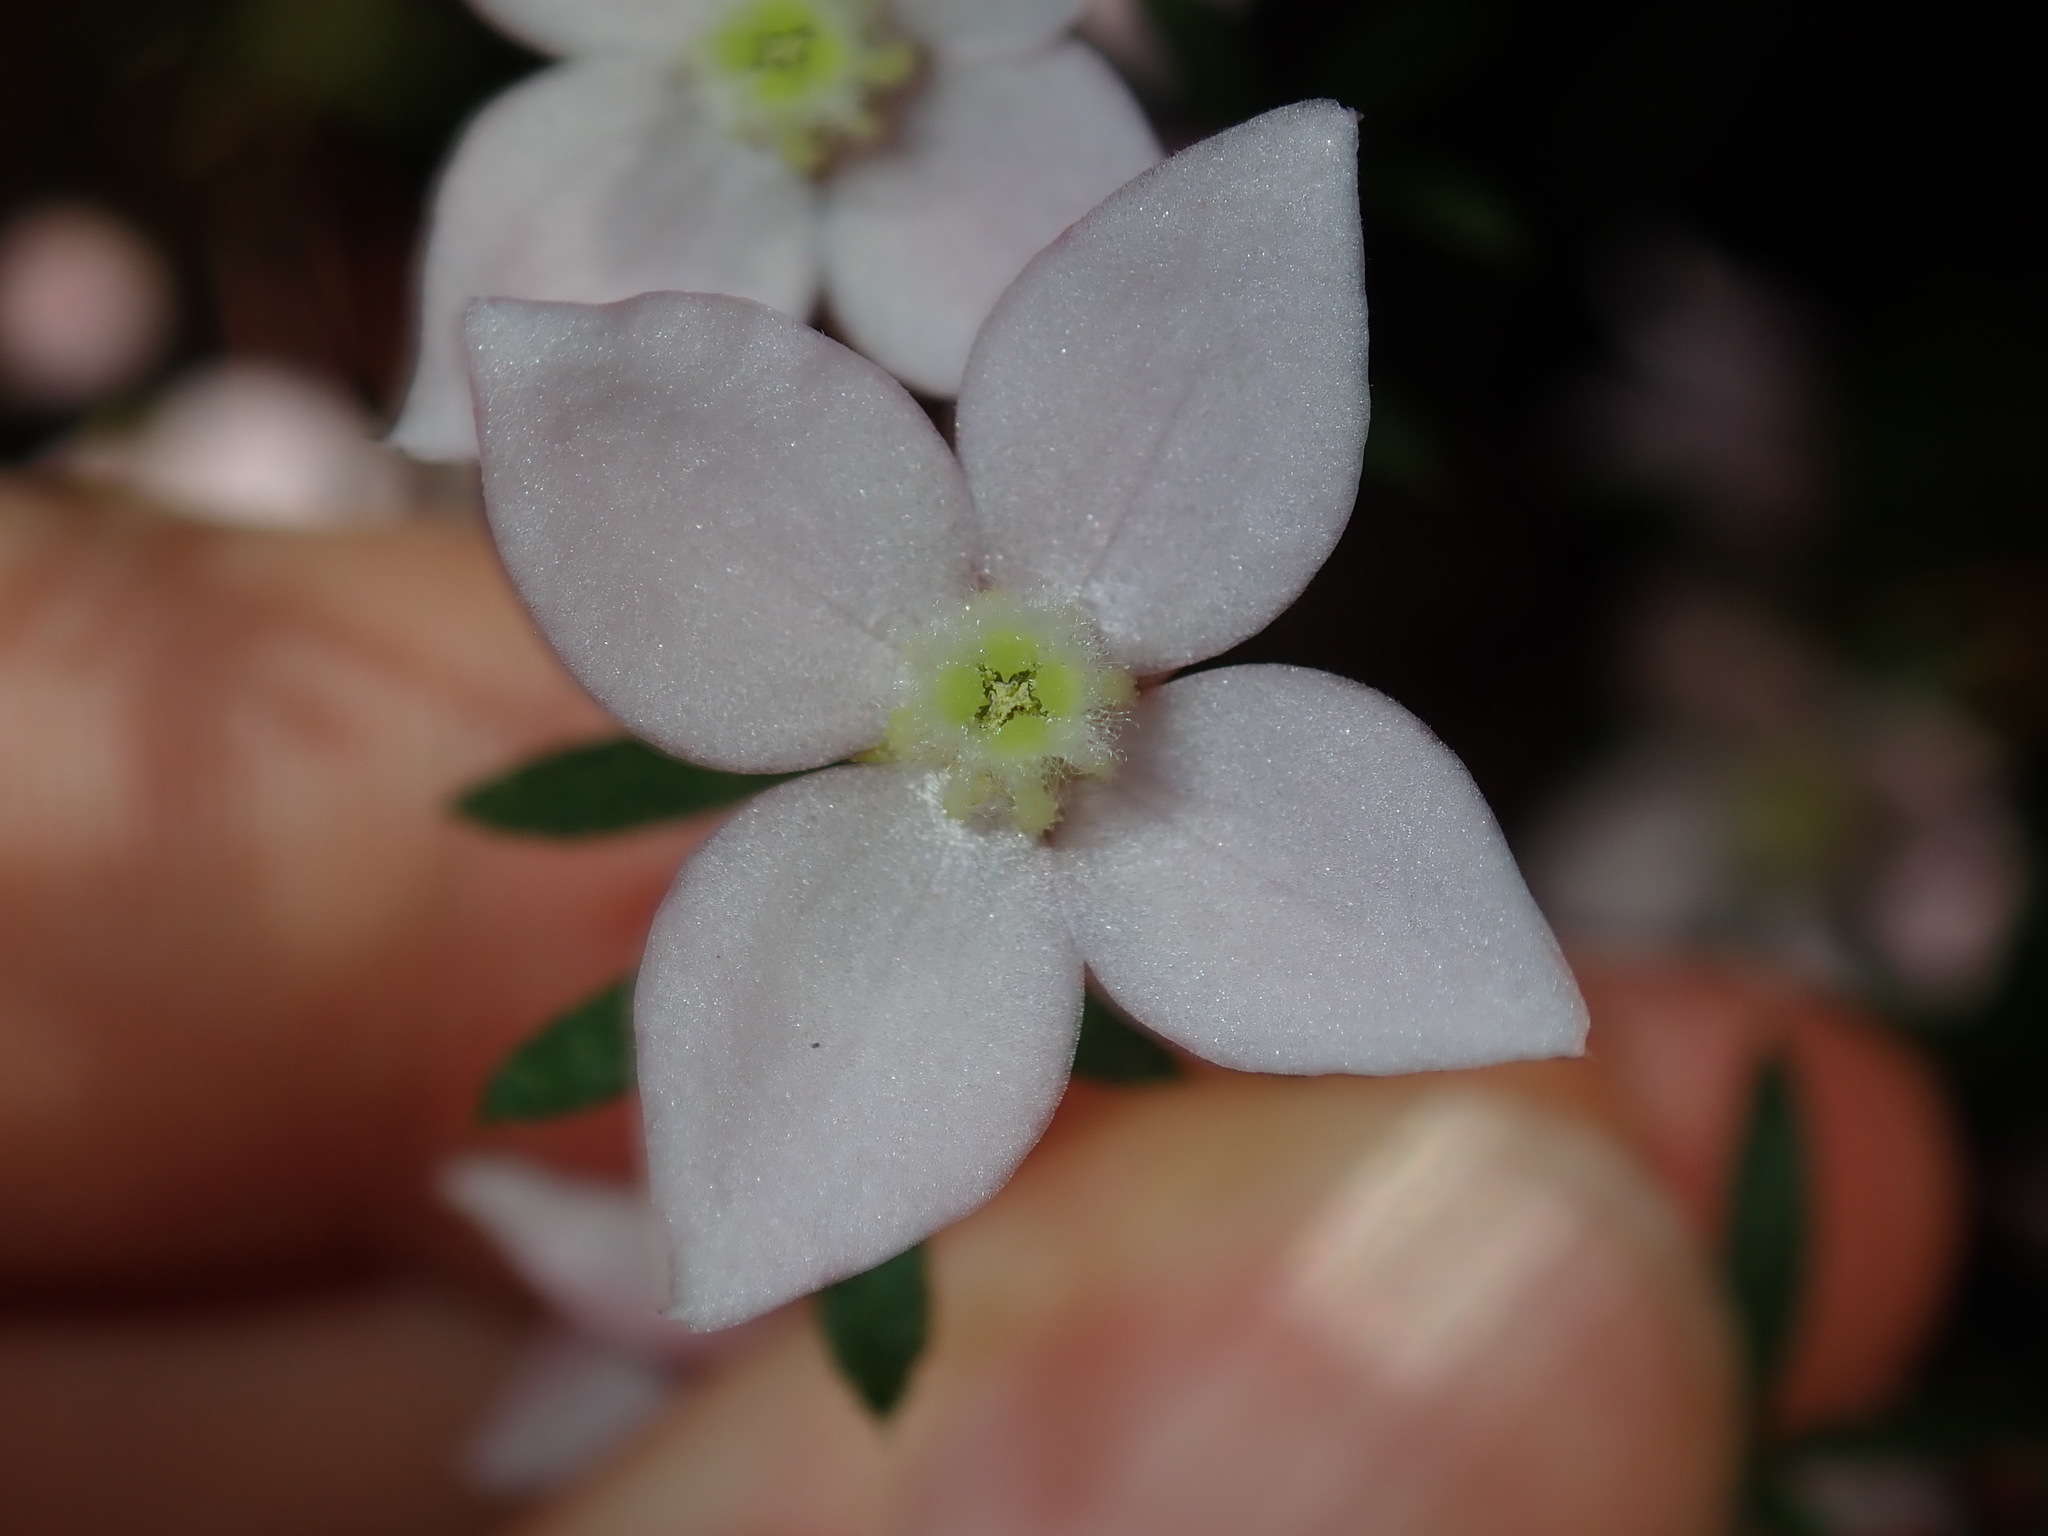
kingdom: Plantae
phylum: Tracheophyta
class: Magnoliopsida
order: Sapindales
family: Rutaceae
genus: Boronia
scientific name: Boronia floribunda
